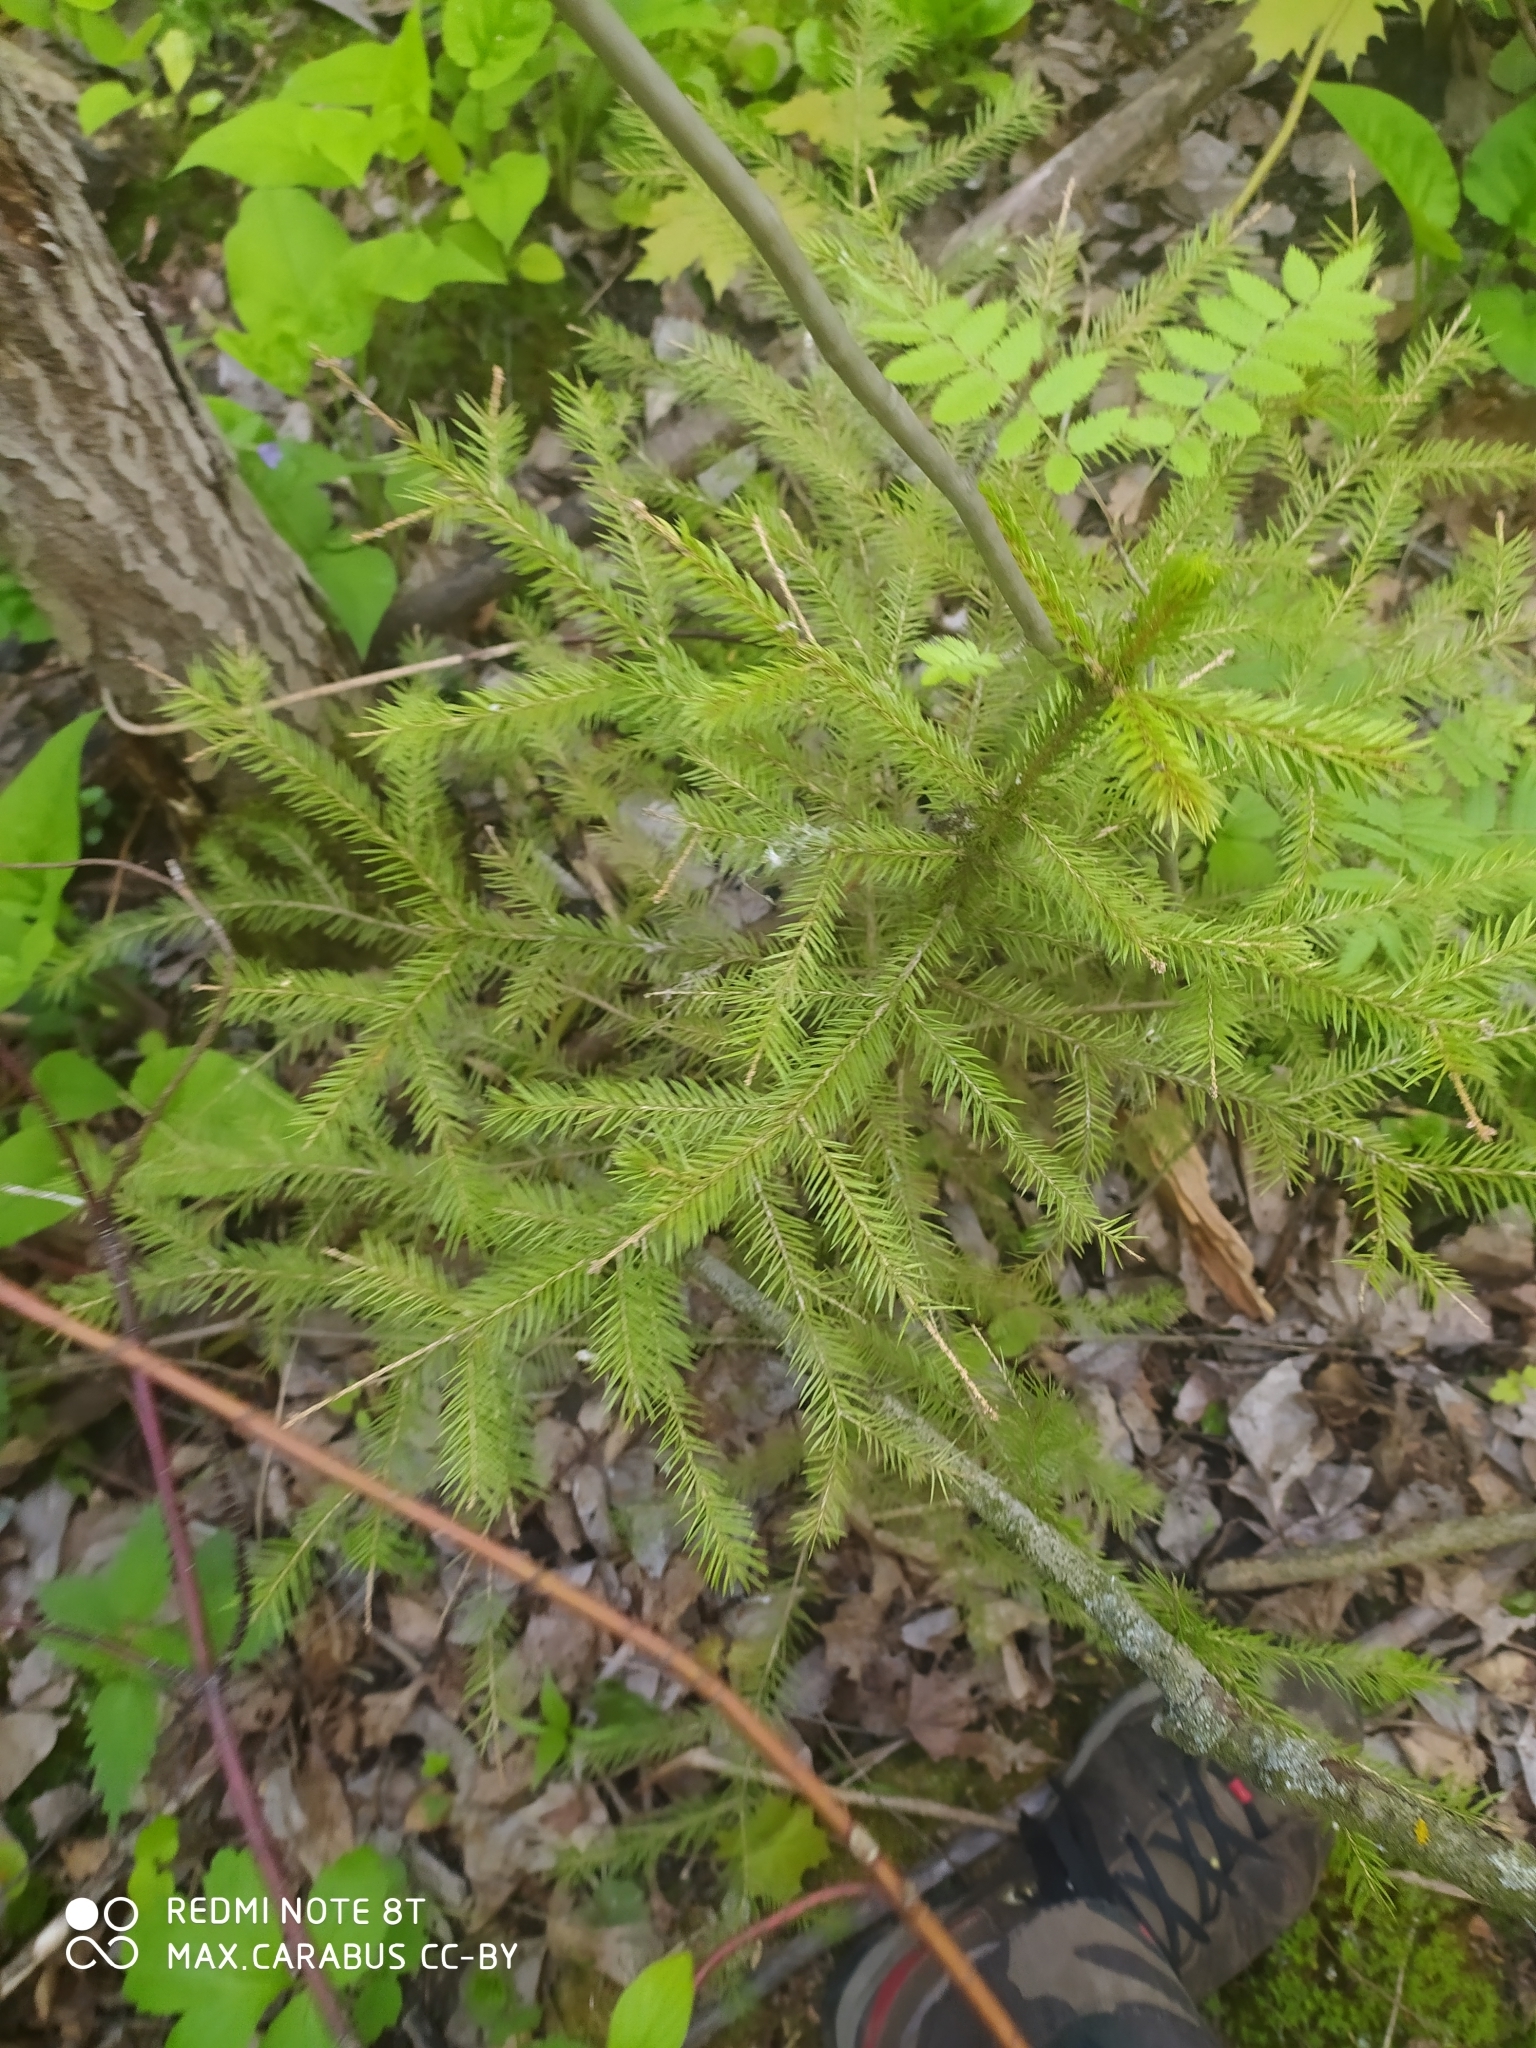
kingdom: Plantae
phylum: Tracheophyta
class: Pinopsida
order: Pinales
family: Pinaceae
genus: Picea
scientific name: Picea abies
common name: Norway spruce
